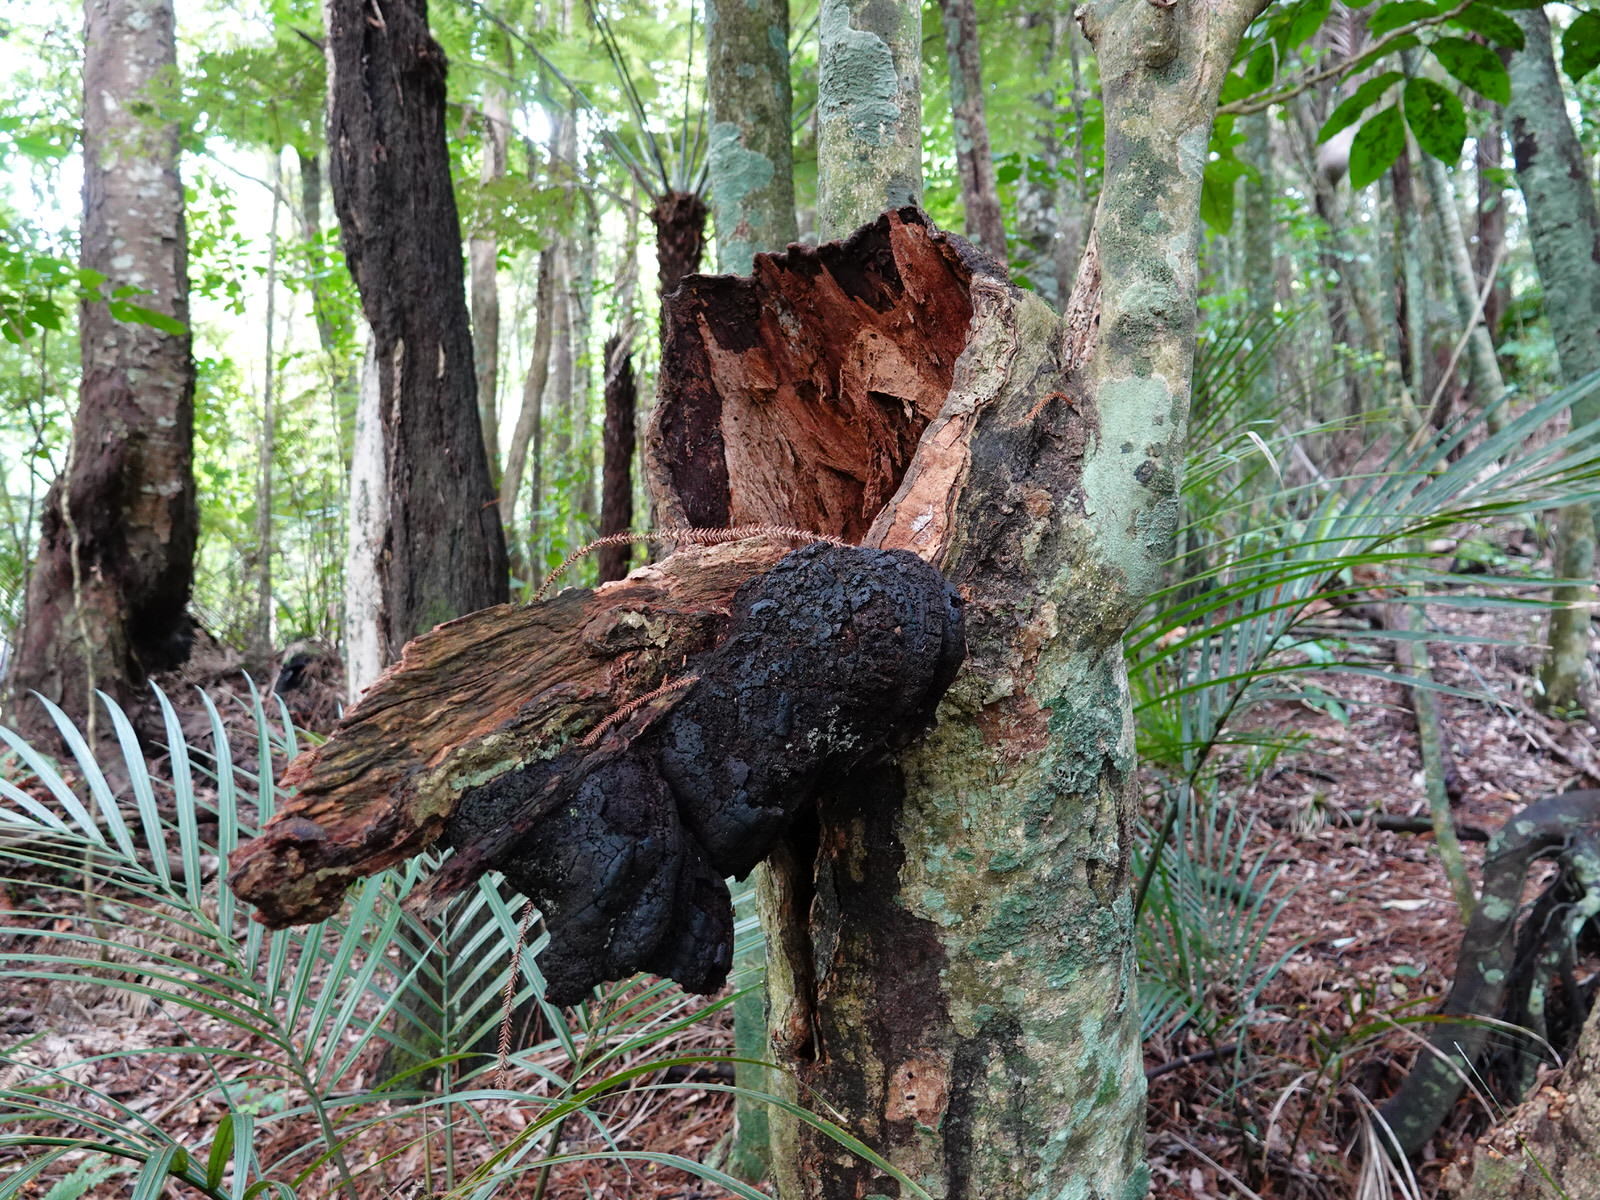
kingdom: Animalia
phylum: Mollusca
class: Gastropoda
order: Stylommatophora
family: Rhytididae
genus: Rhytida
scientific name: Rhytida greenwoodi
